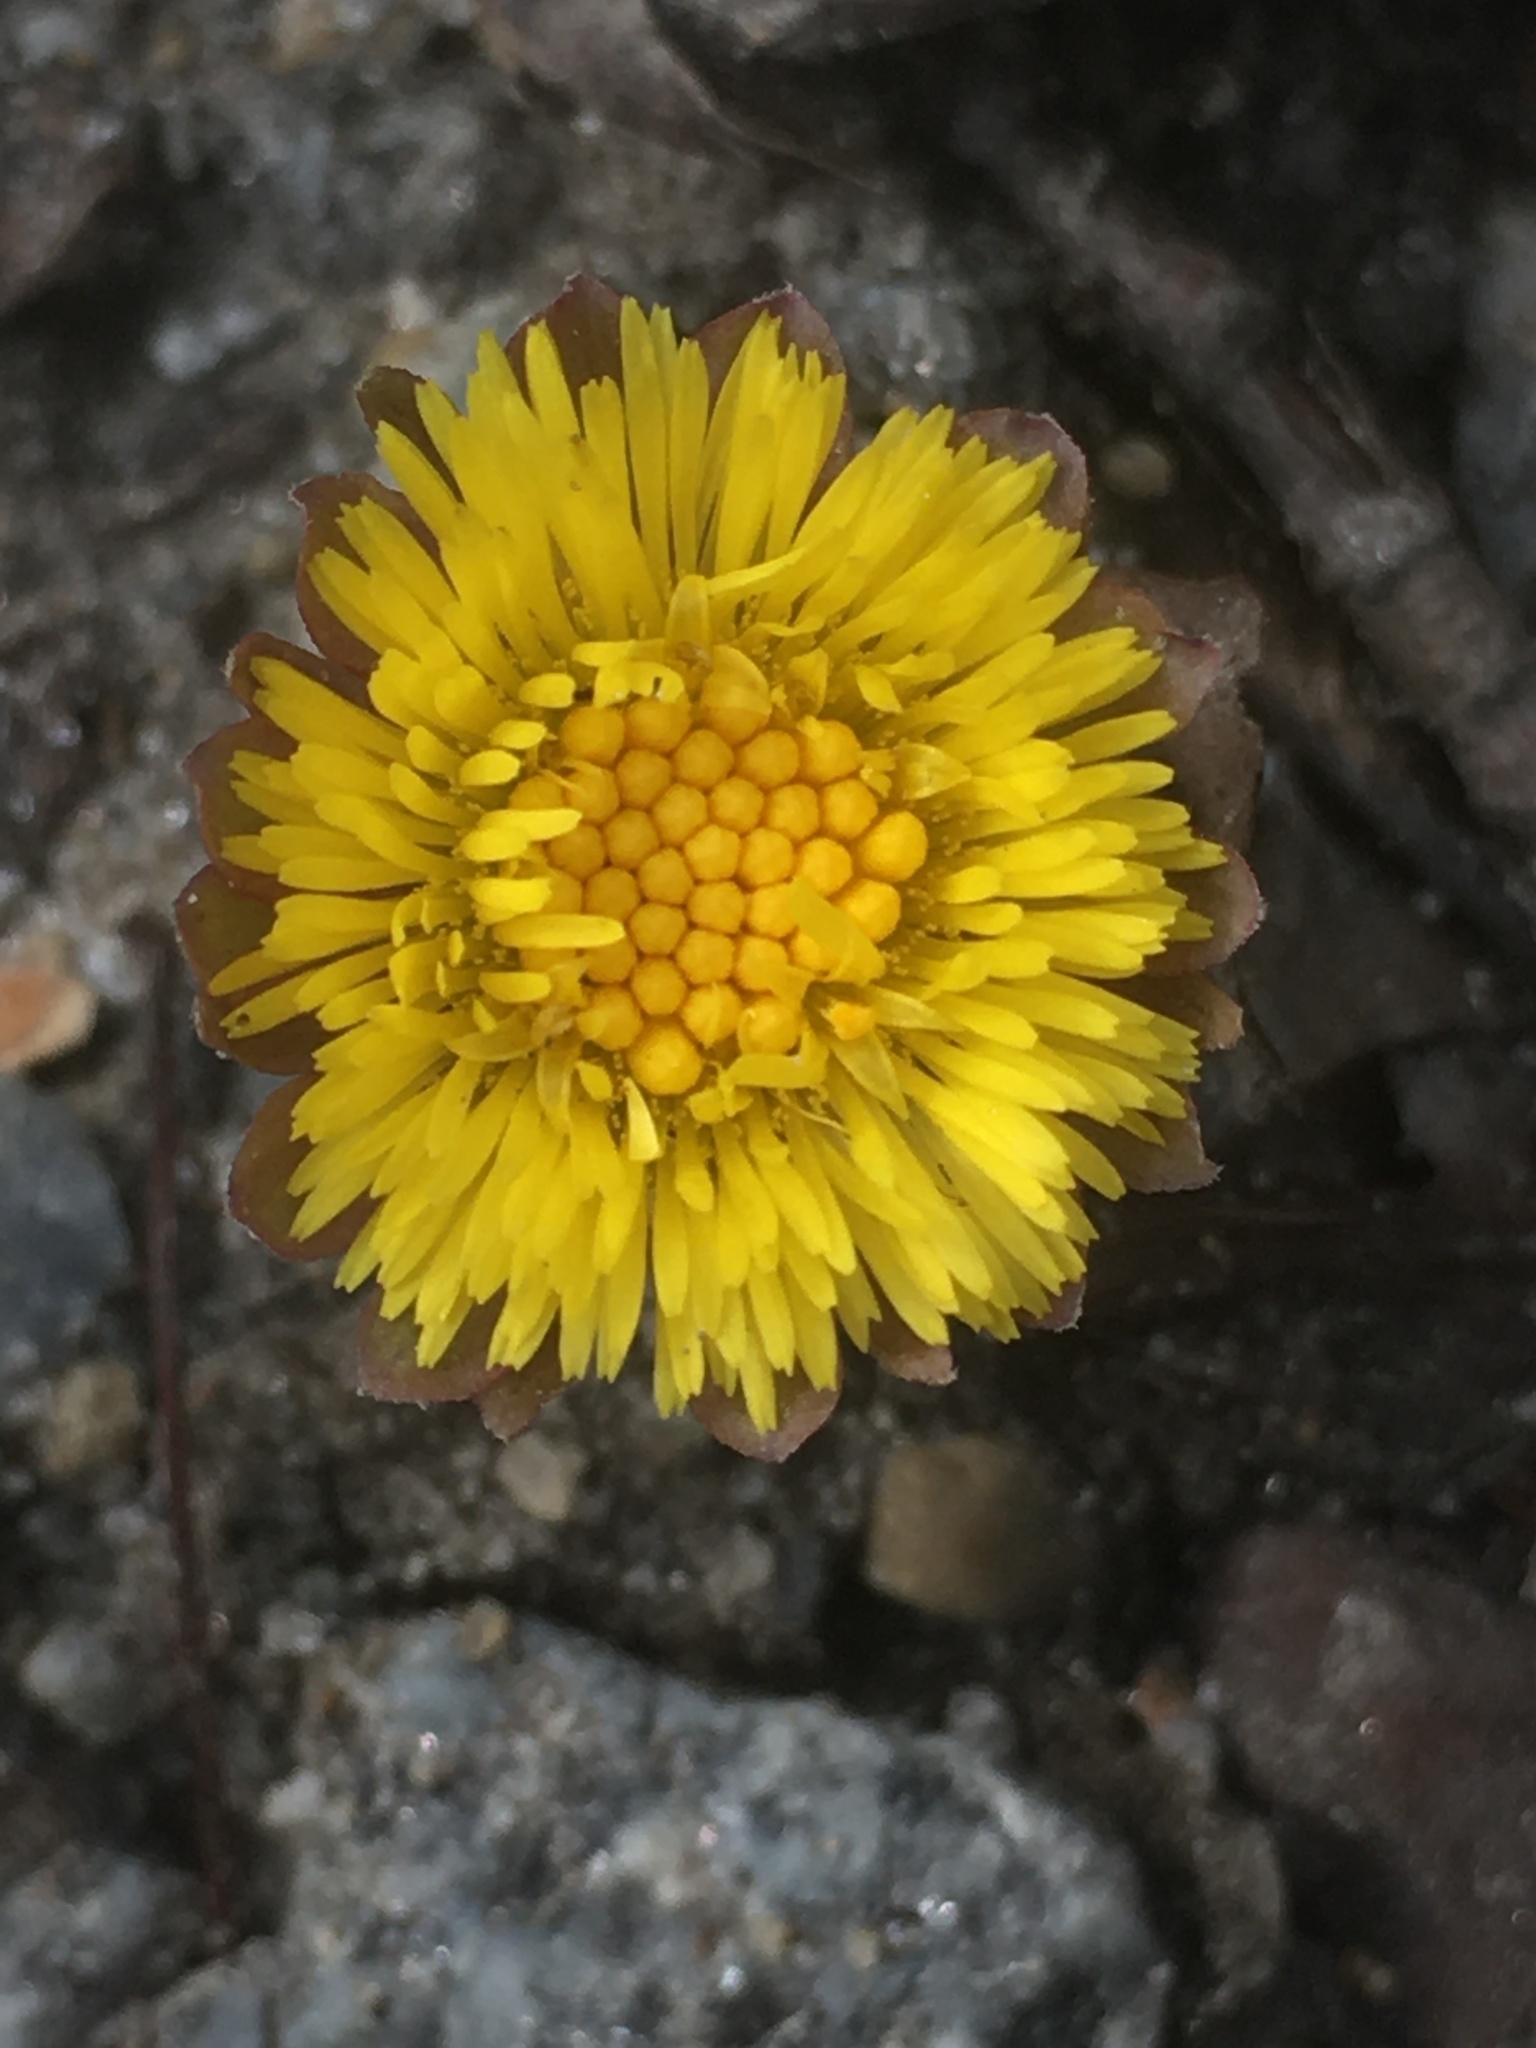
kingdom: Plantae
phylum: Tracheophyta
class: Magnoliopsida
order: Asterales
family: Asteraceae
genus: Tussilago
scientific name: Tussilago farfara
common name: Coltsfoot
